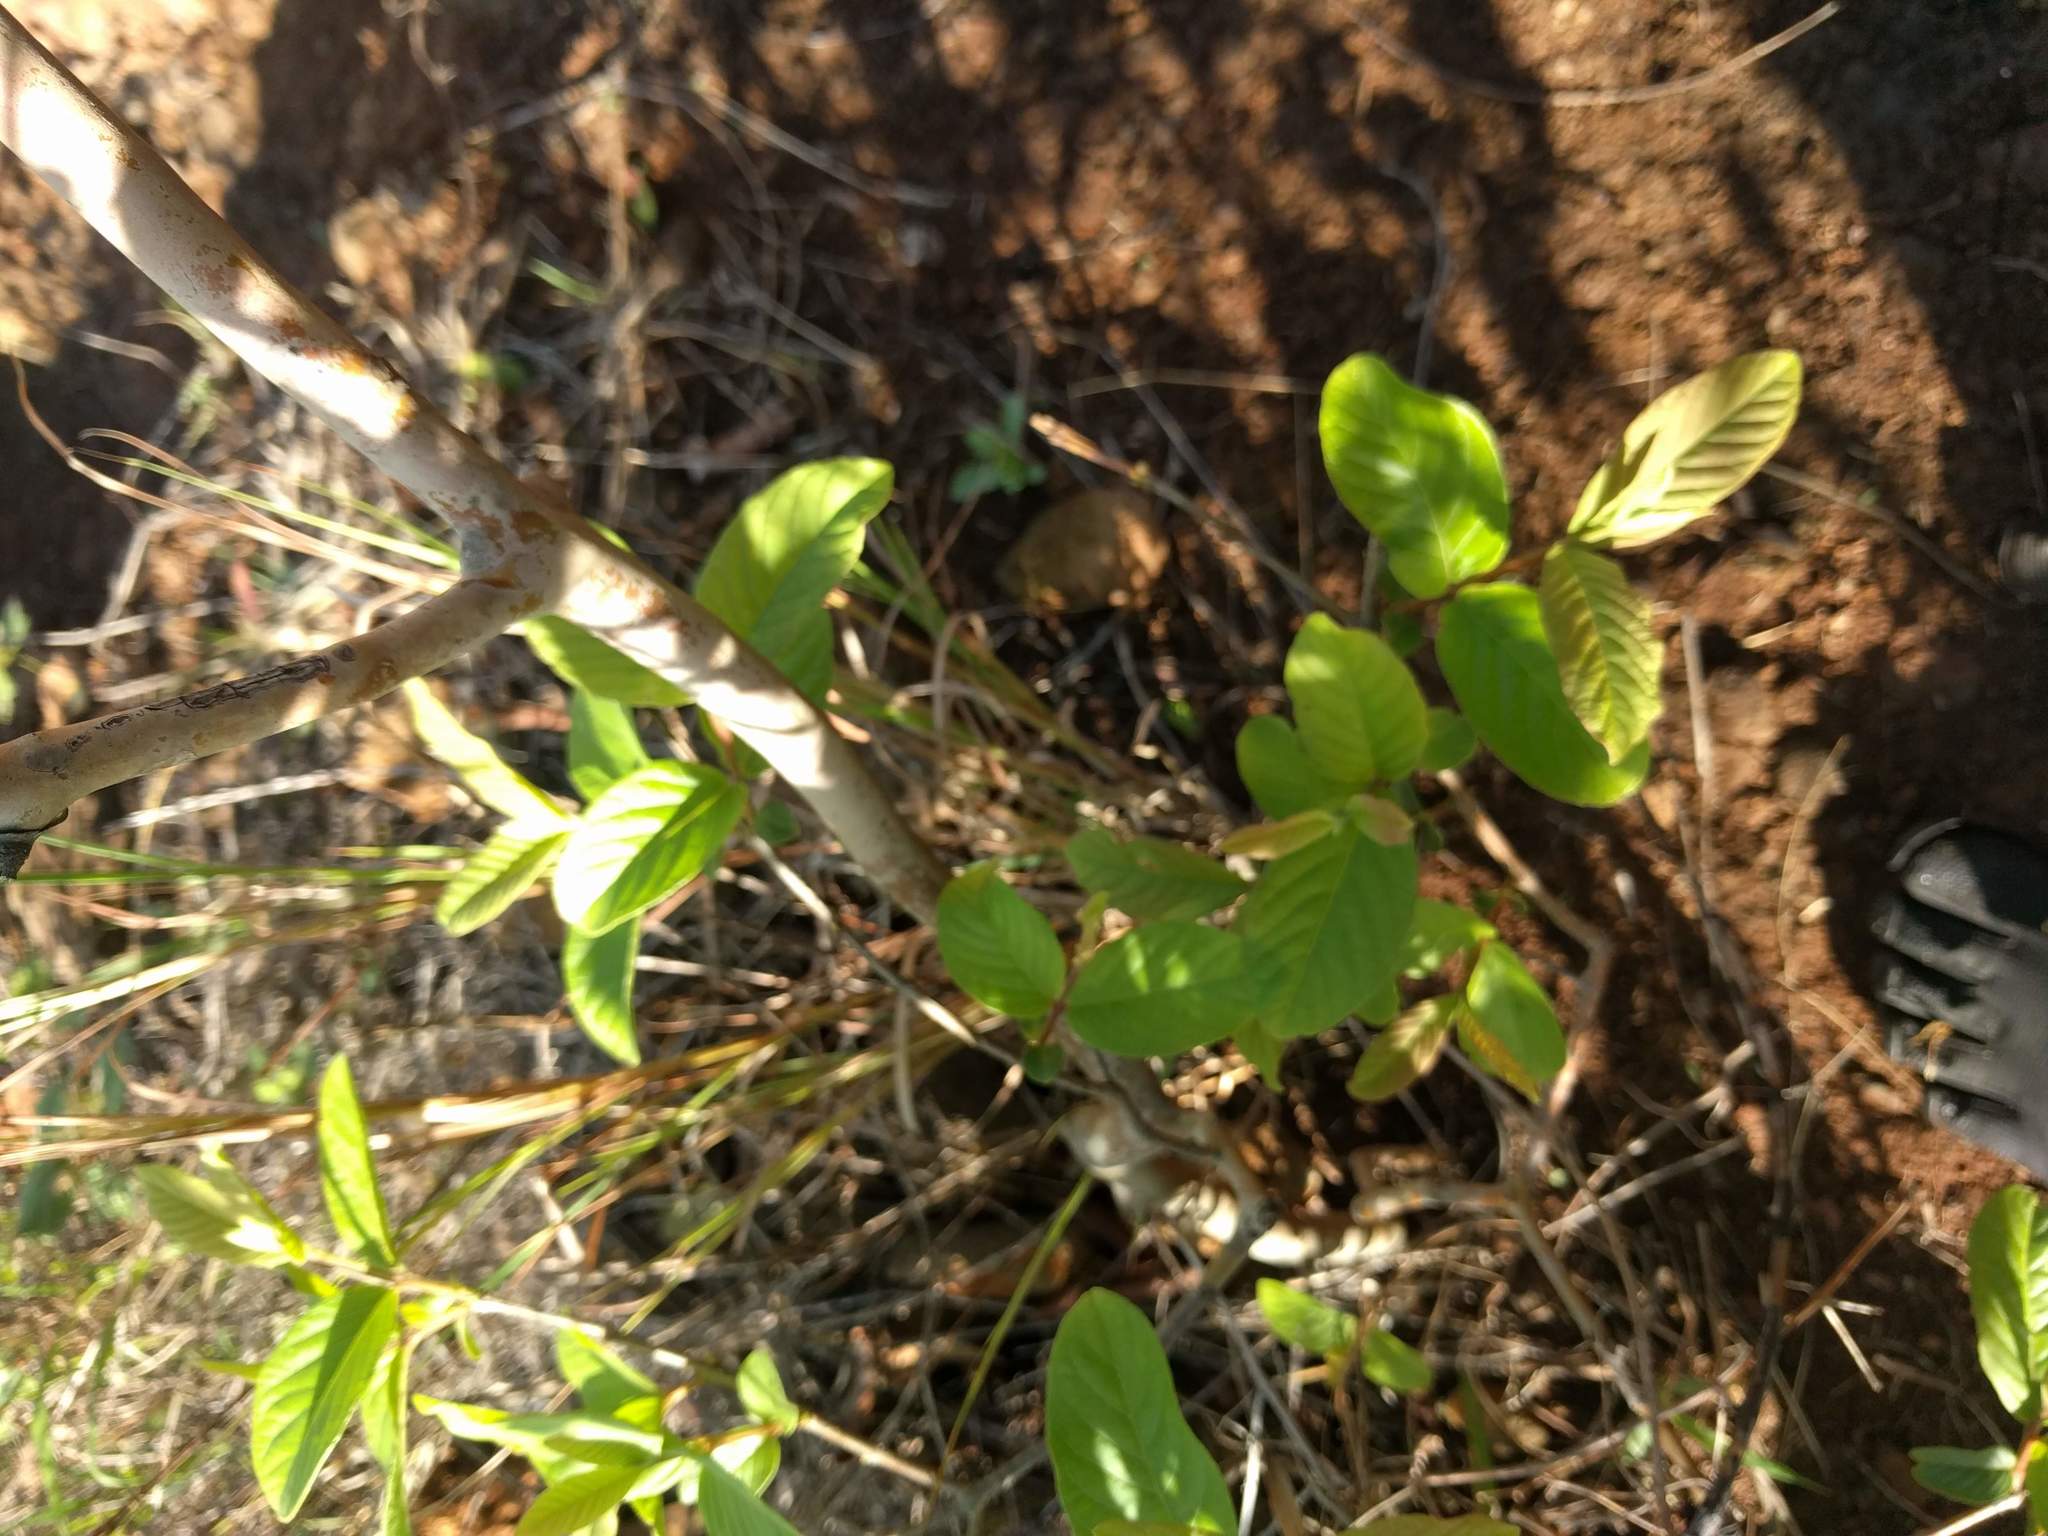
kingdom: Plantae
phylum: Tracheophyta
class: Magnoliopsida
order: Myrtales
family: Myrtaceae
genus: Psidium
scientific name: Psidium guajava
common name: Guava
